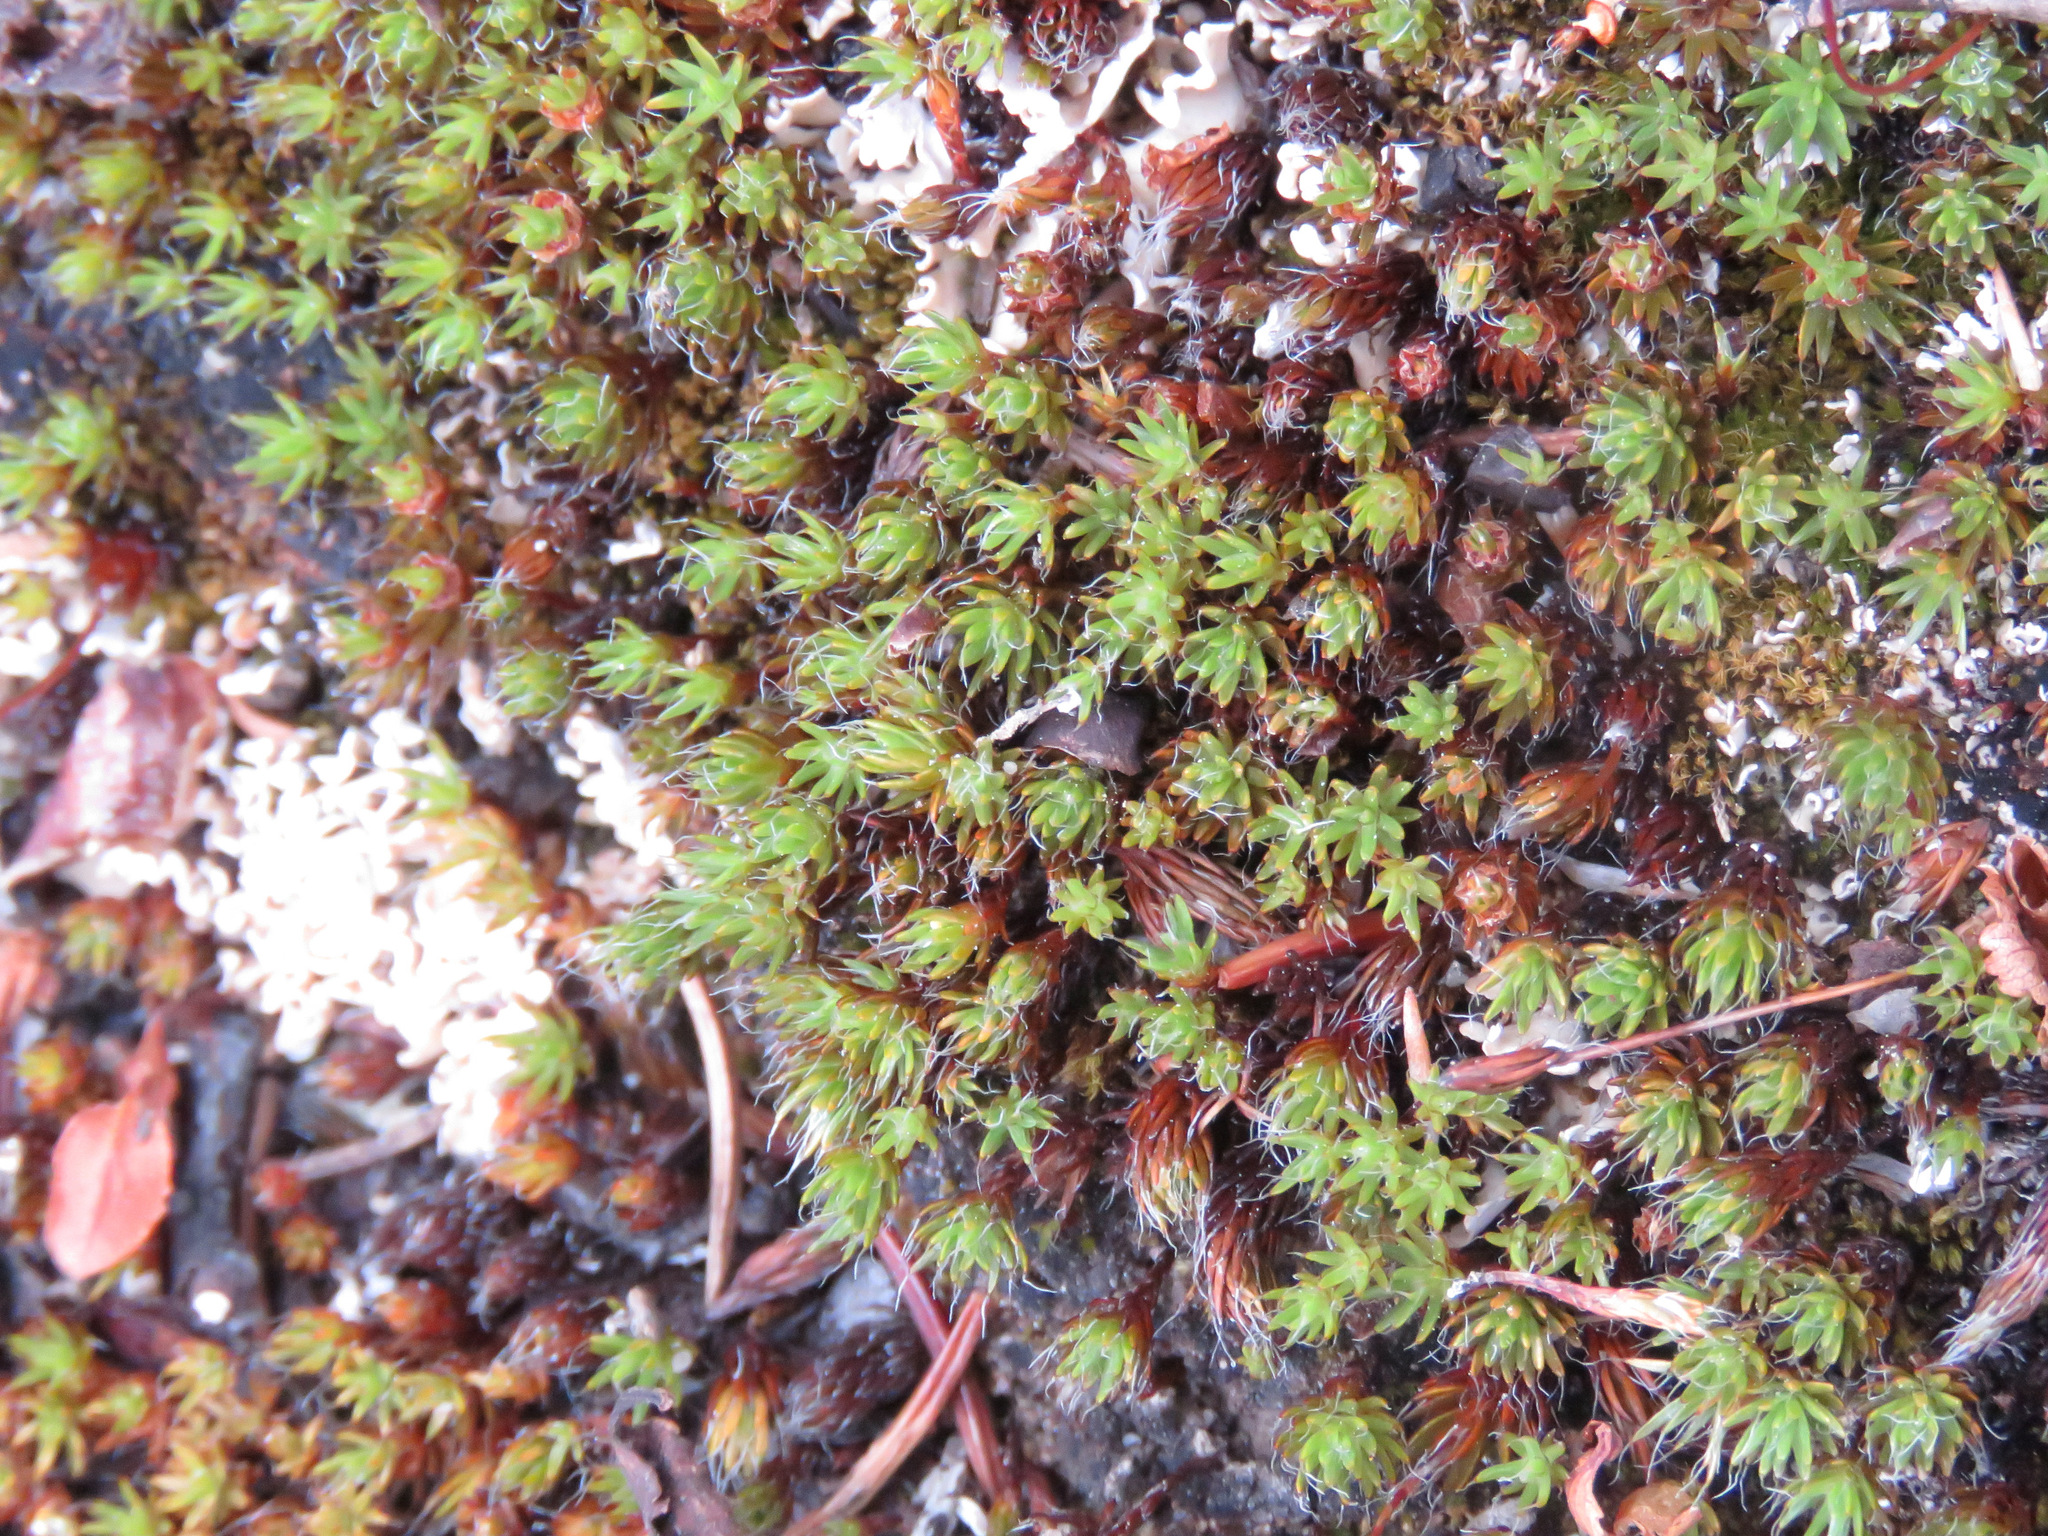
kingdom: Plantae
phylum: Bryophyta
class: Polytrichopsida
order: Polytrichales
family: Polytrichaceae
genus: Polytrichum
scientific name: Polytrichum piliferum
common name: Bristly haircap
